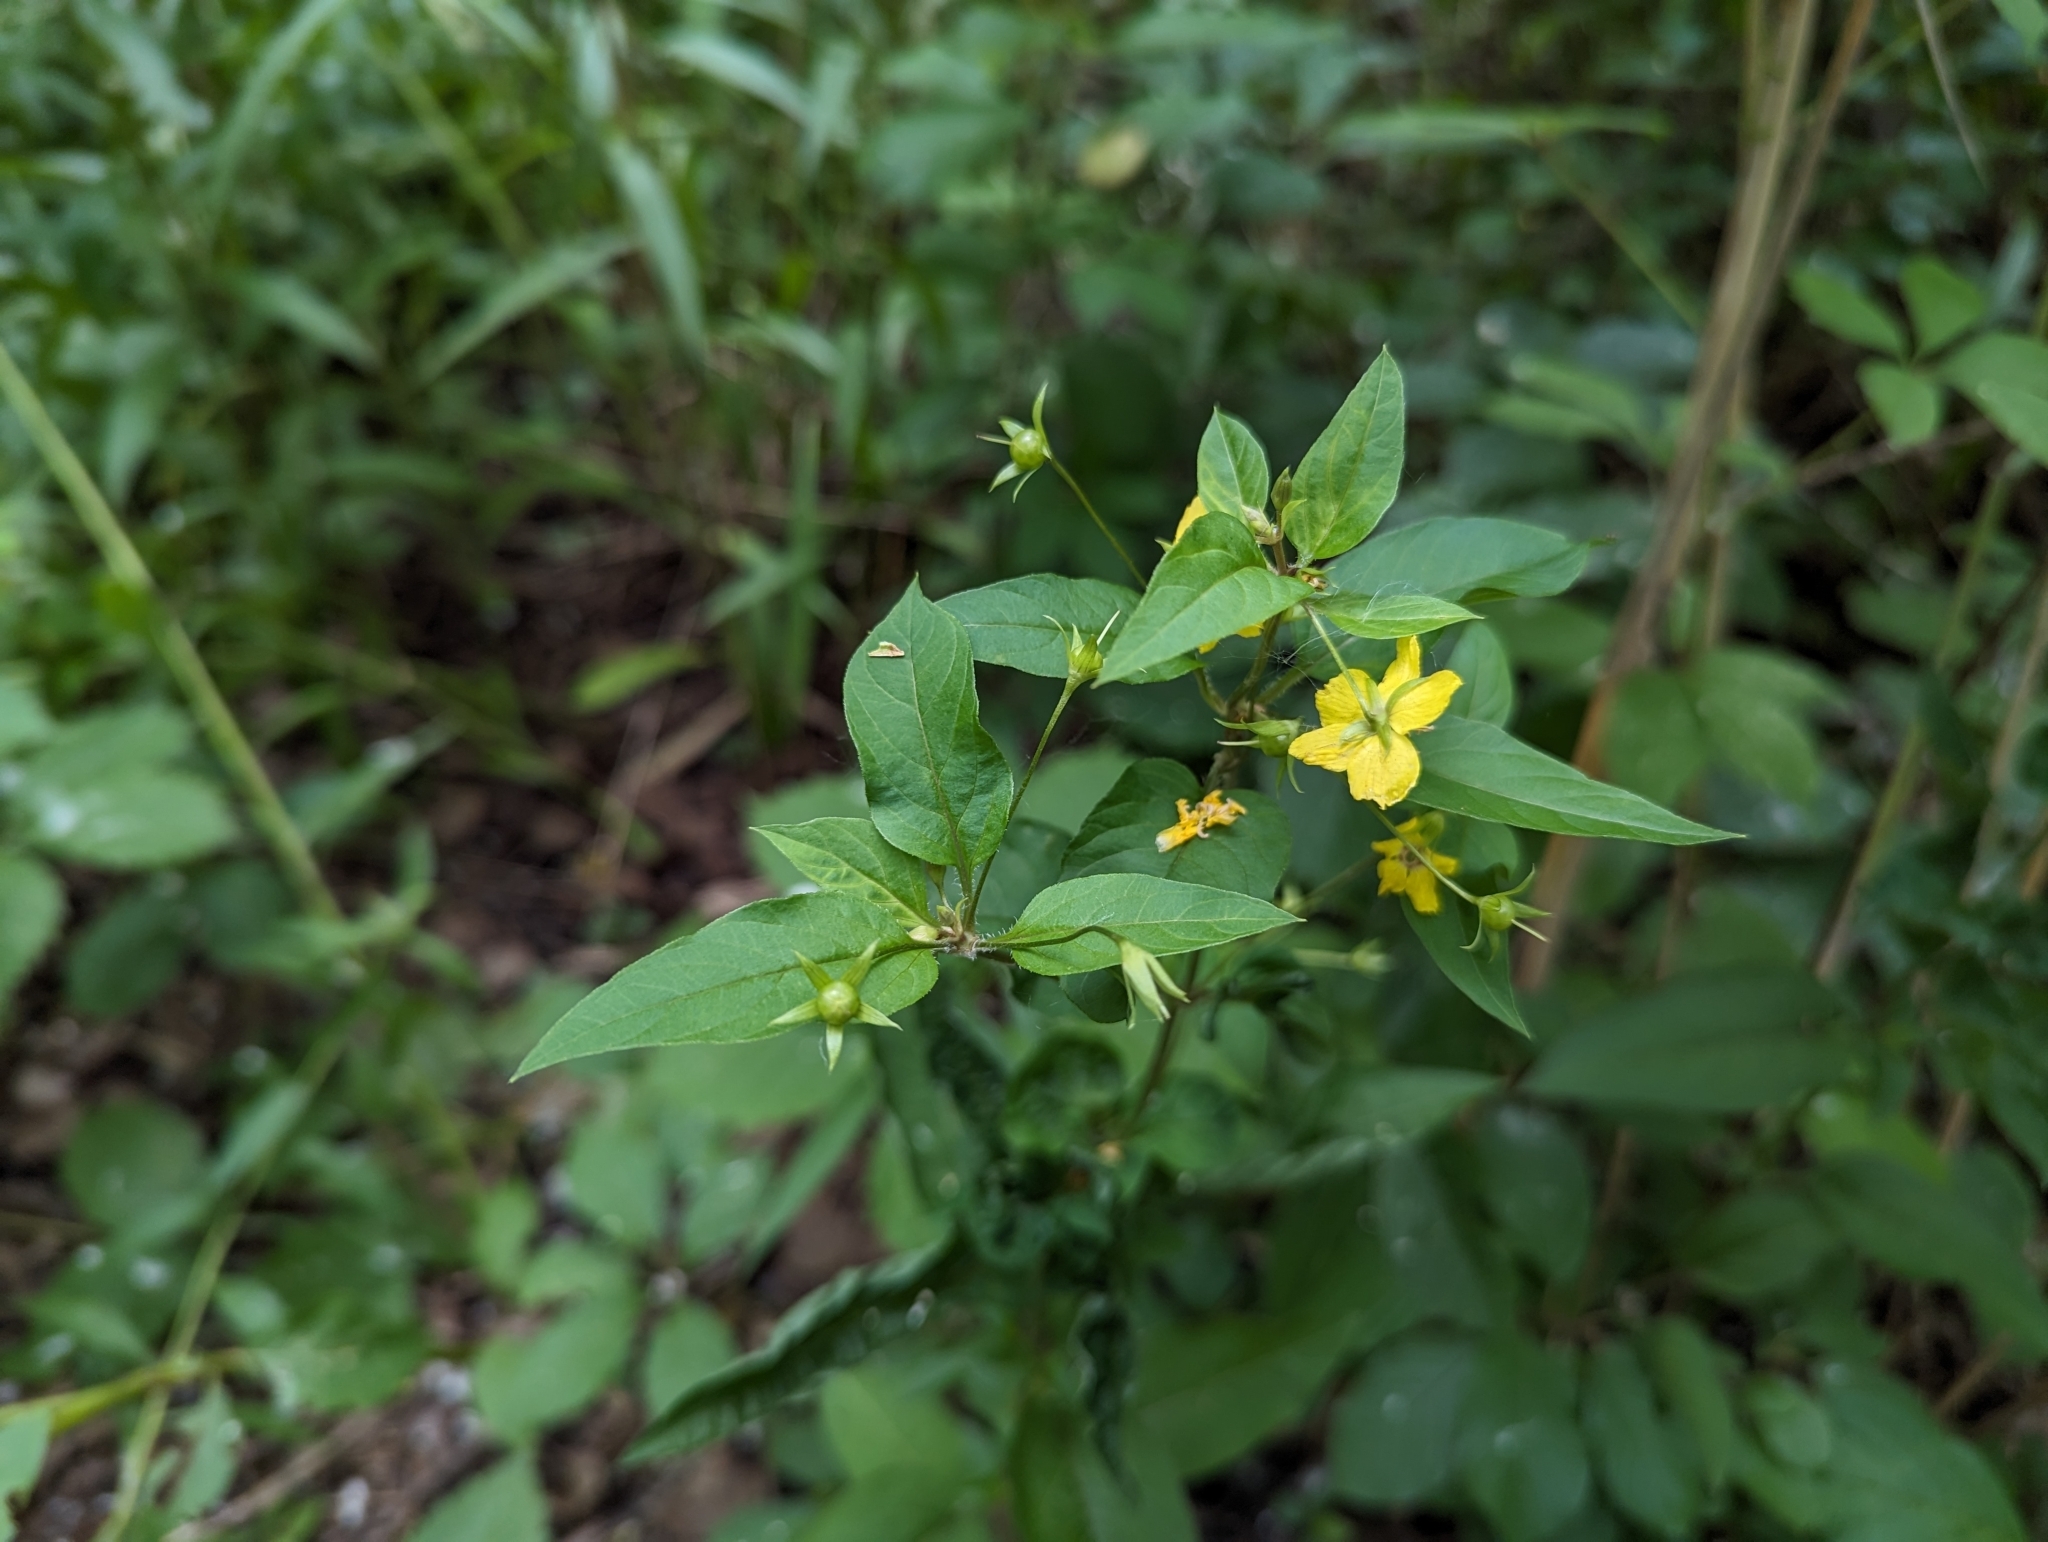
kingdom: Plantae
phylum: Tracheophyta
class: Magnoliopsida
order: Ericales
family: Primulaceae
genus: Lysimachia
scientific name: Lysimachia ciliata
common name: Fringed loosestrife
